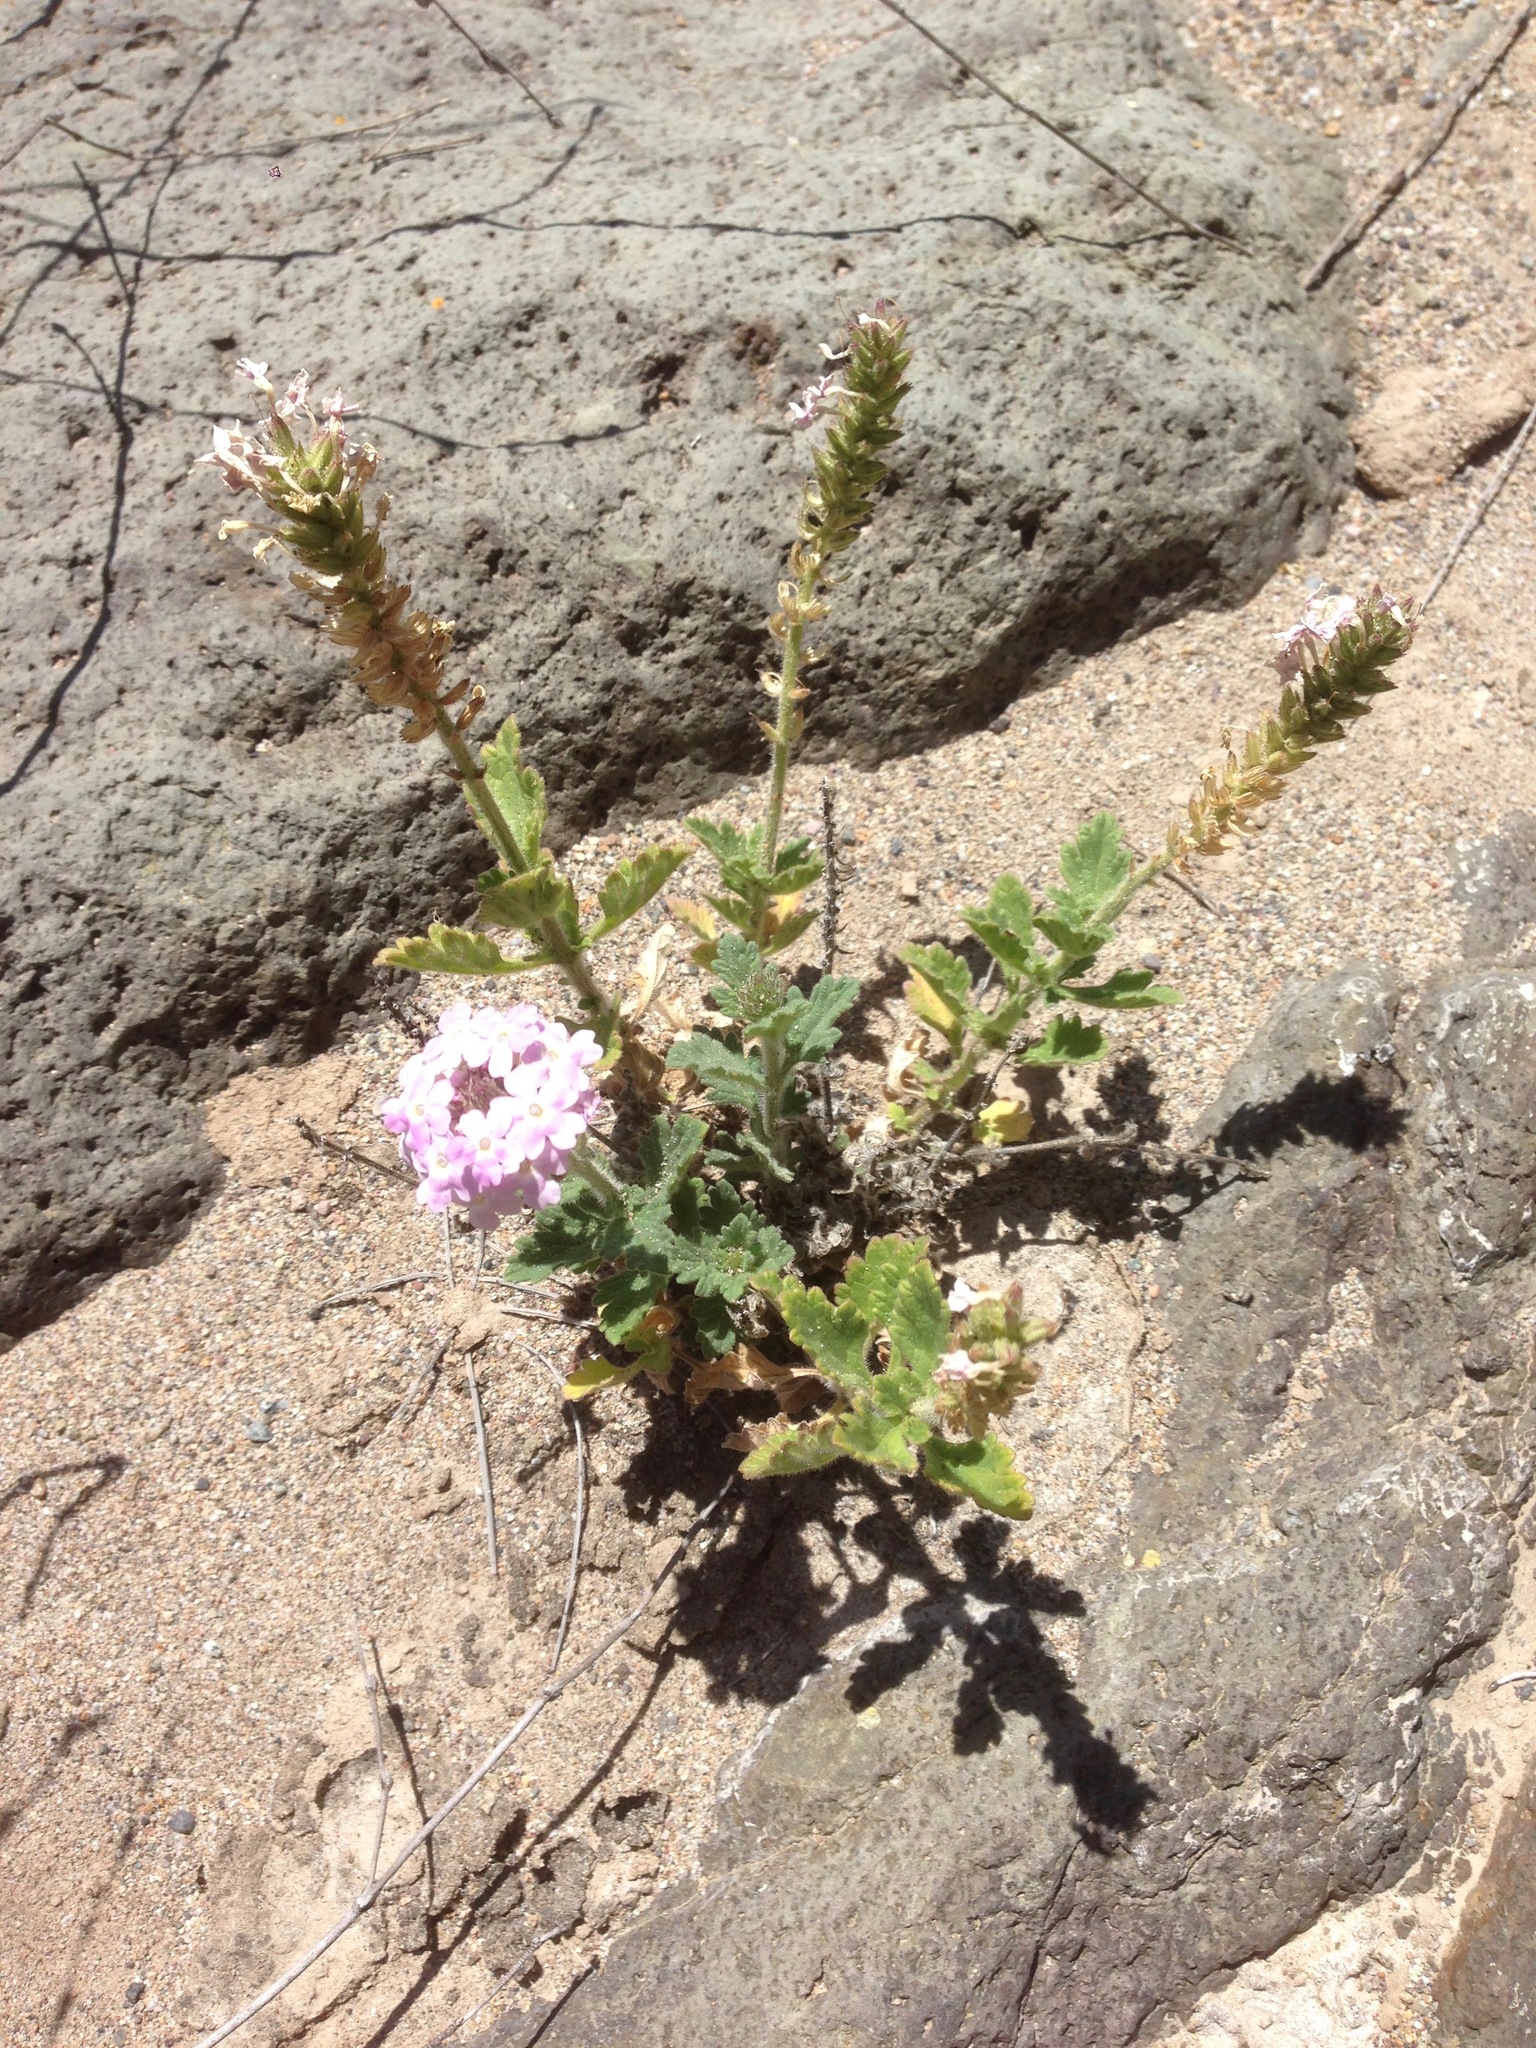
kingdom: Plantae
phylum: Tracheophyta
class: Magnoliopsida
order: Lamiales
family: Verbenaceae
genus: Verbena
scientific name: Verbena gooddingii
